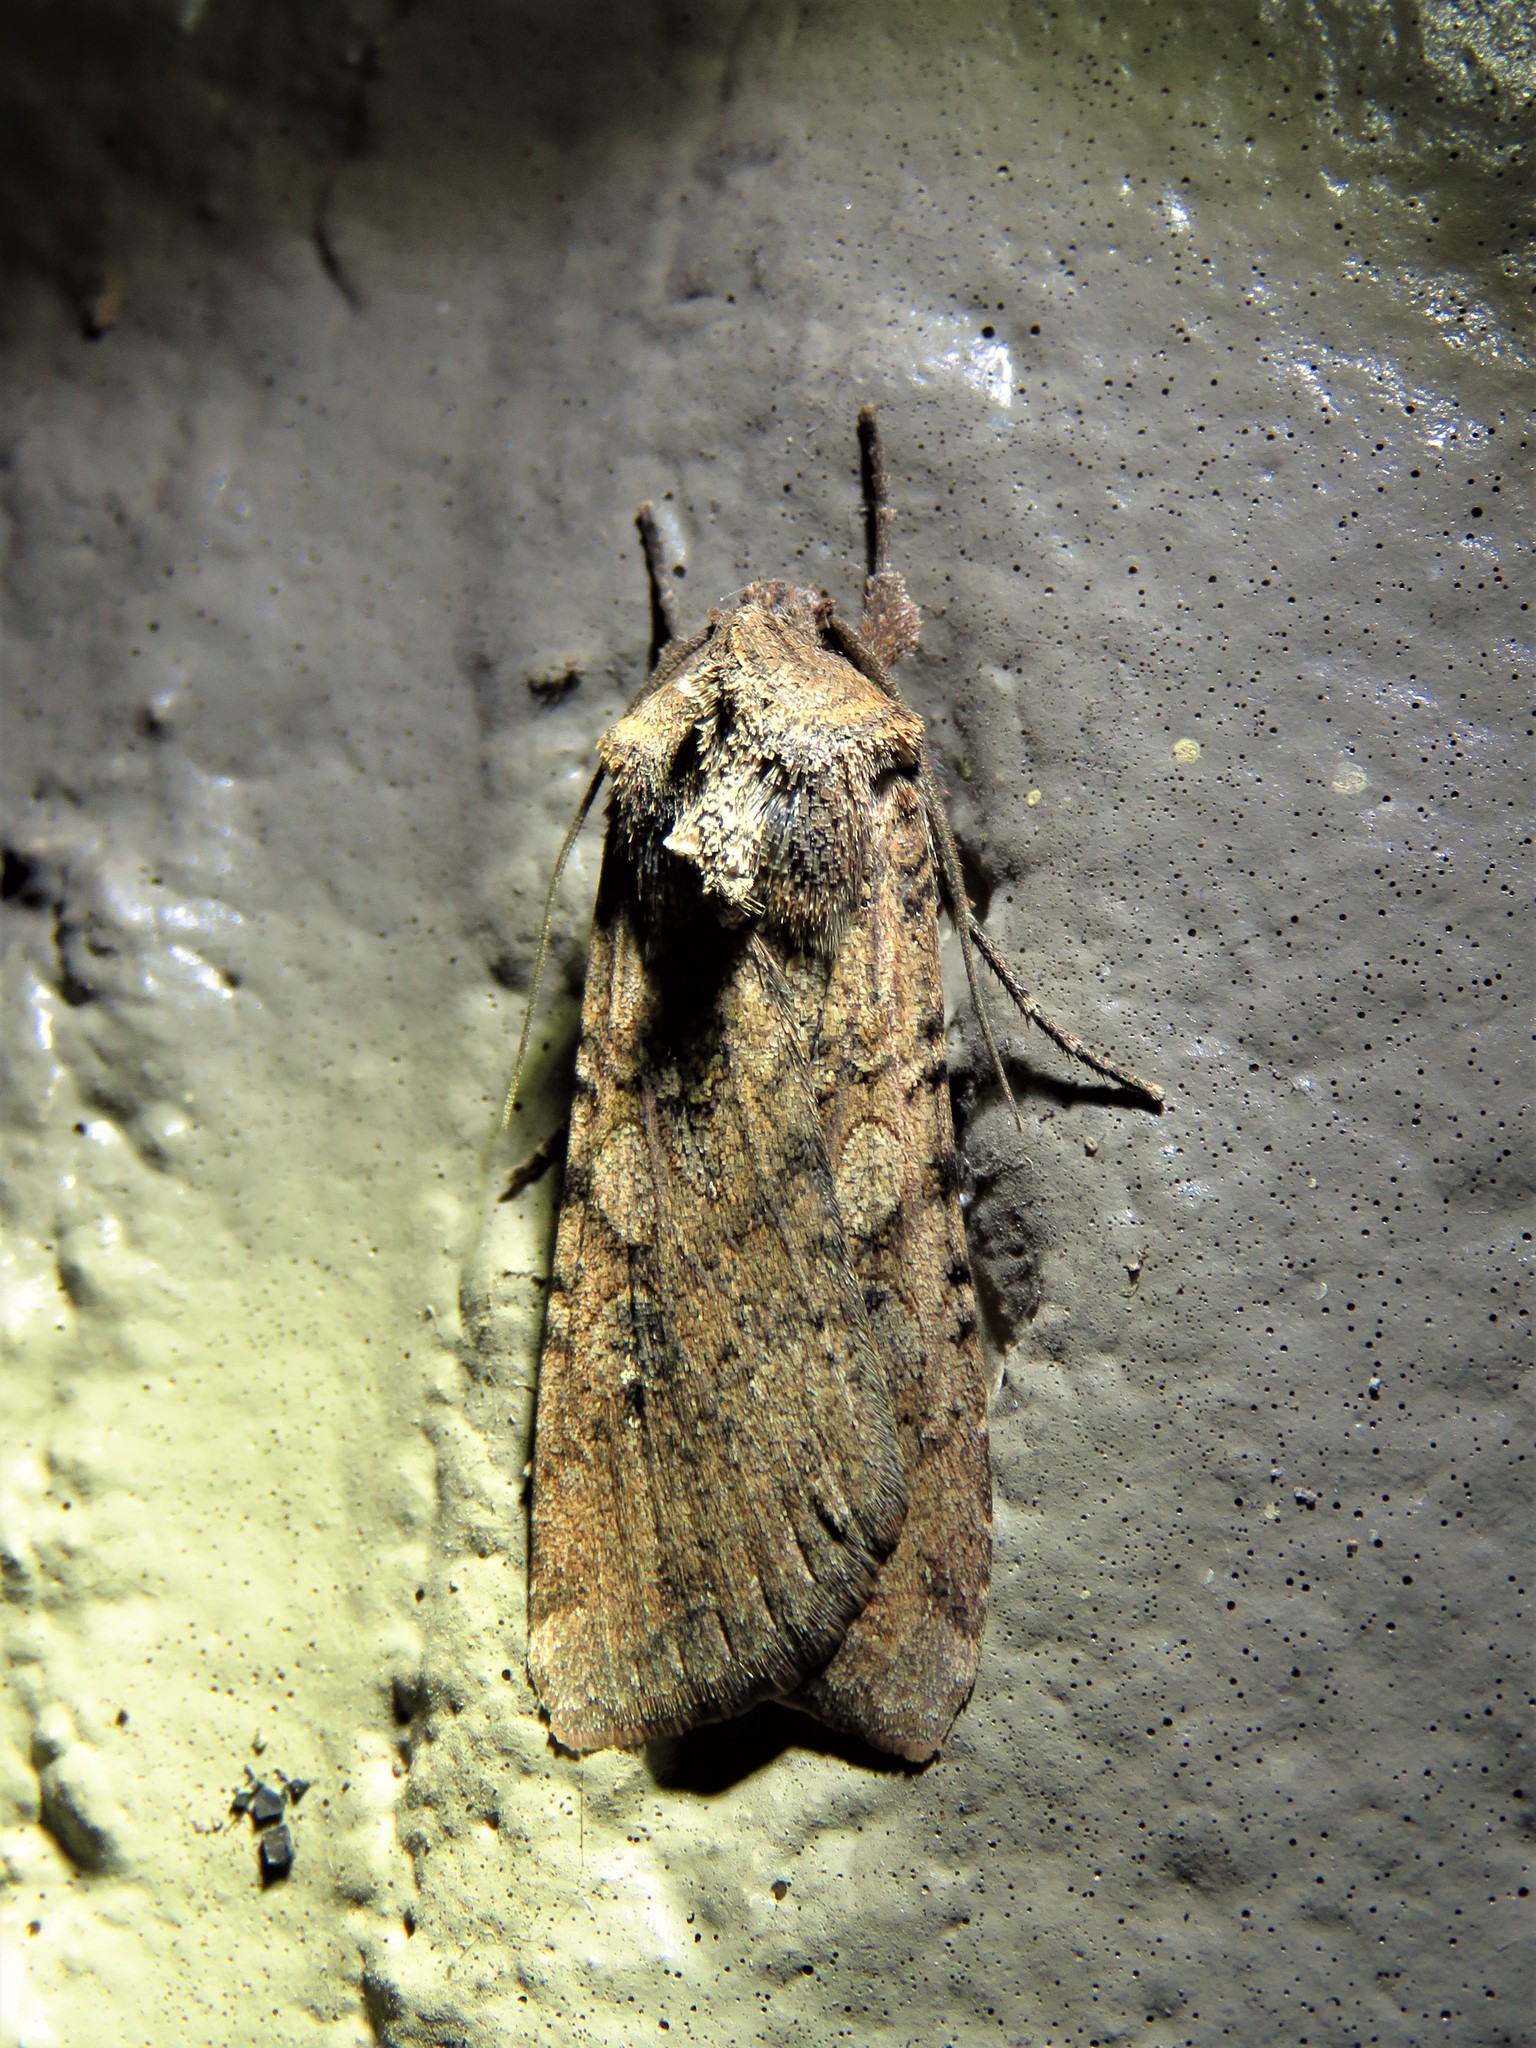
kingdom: Animalia
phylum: Arthropoda
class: Insecta
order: Lepidoptera
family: Noctuidae
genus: Peridroma
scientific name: Peridroma saucia
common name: Pearly underwing
